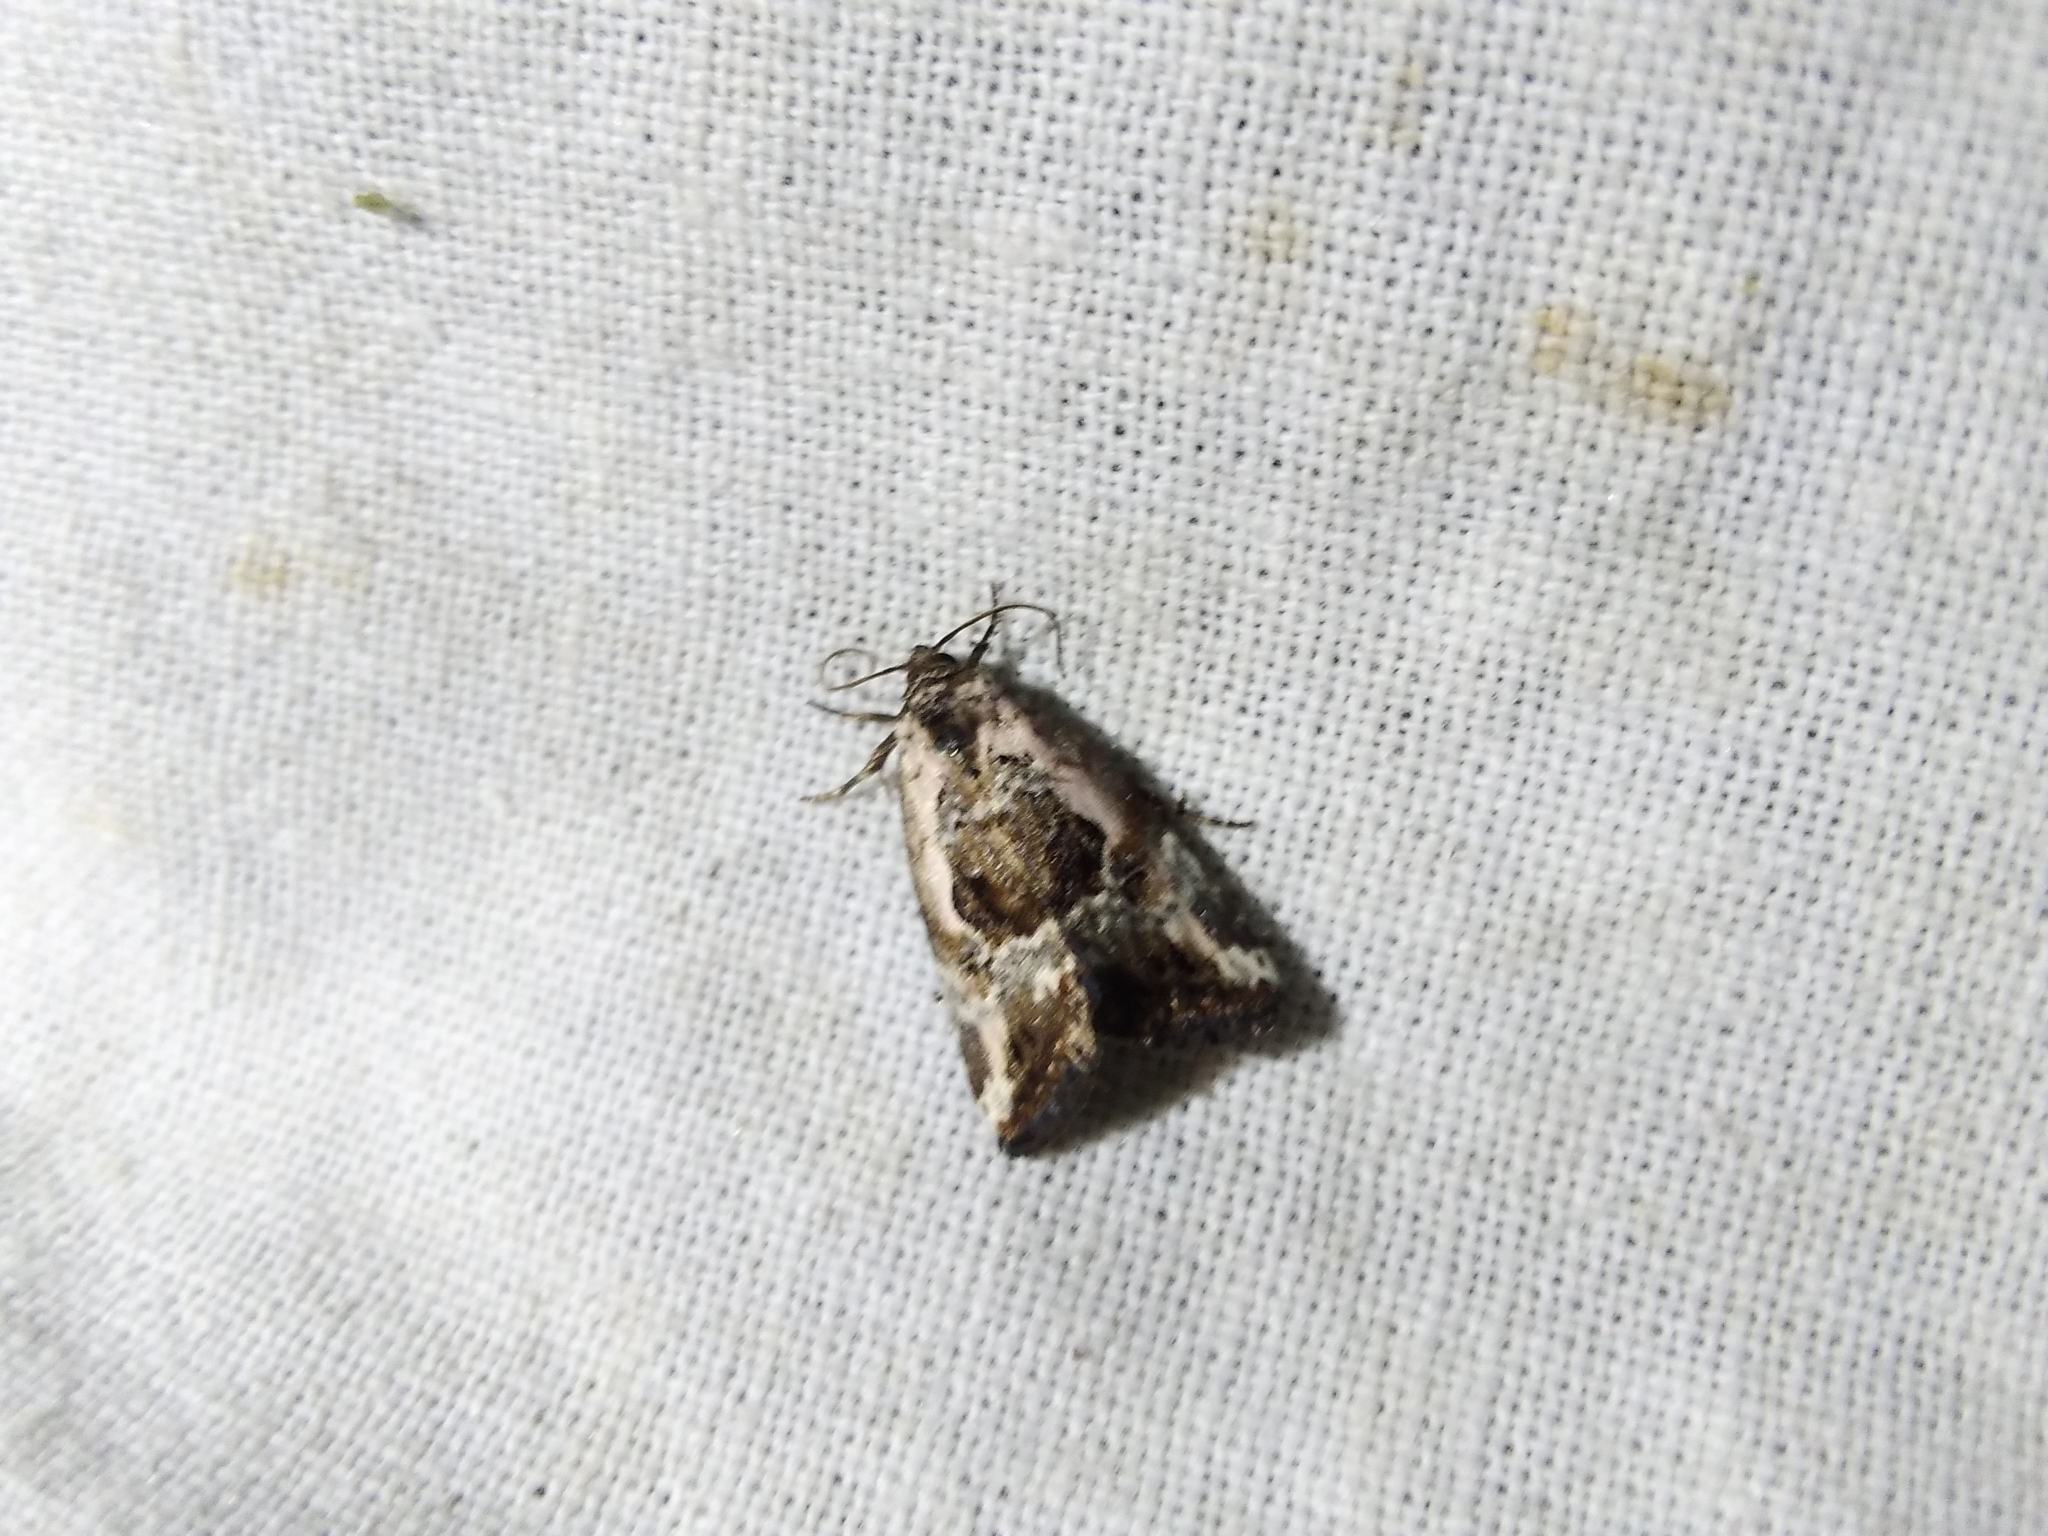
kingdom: Animalia
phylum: Arthropoda
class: Insecta
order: Lepidoptera
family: Noctuidae
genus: Elaphria
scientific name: Elaphria venustula
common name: Rosy marbled
